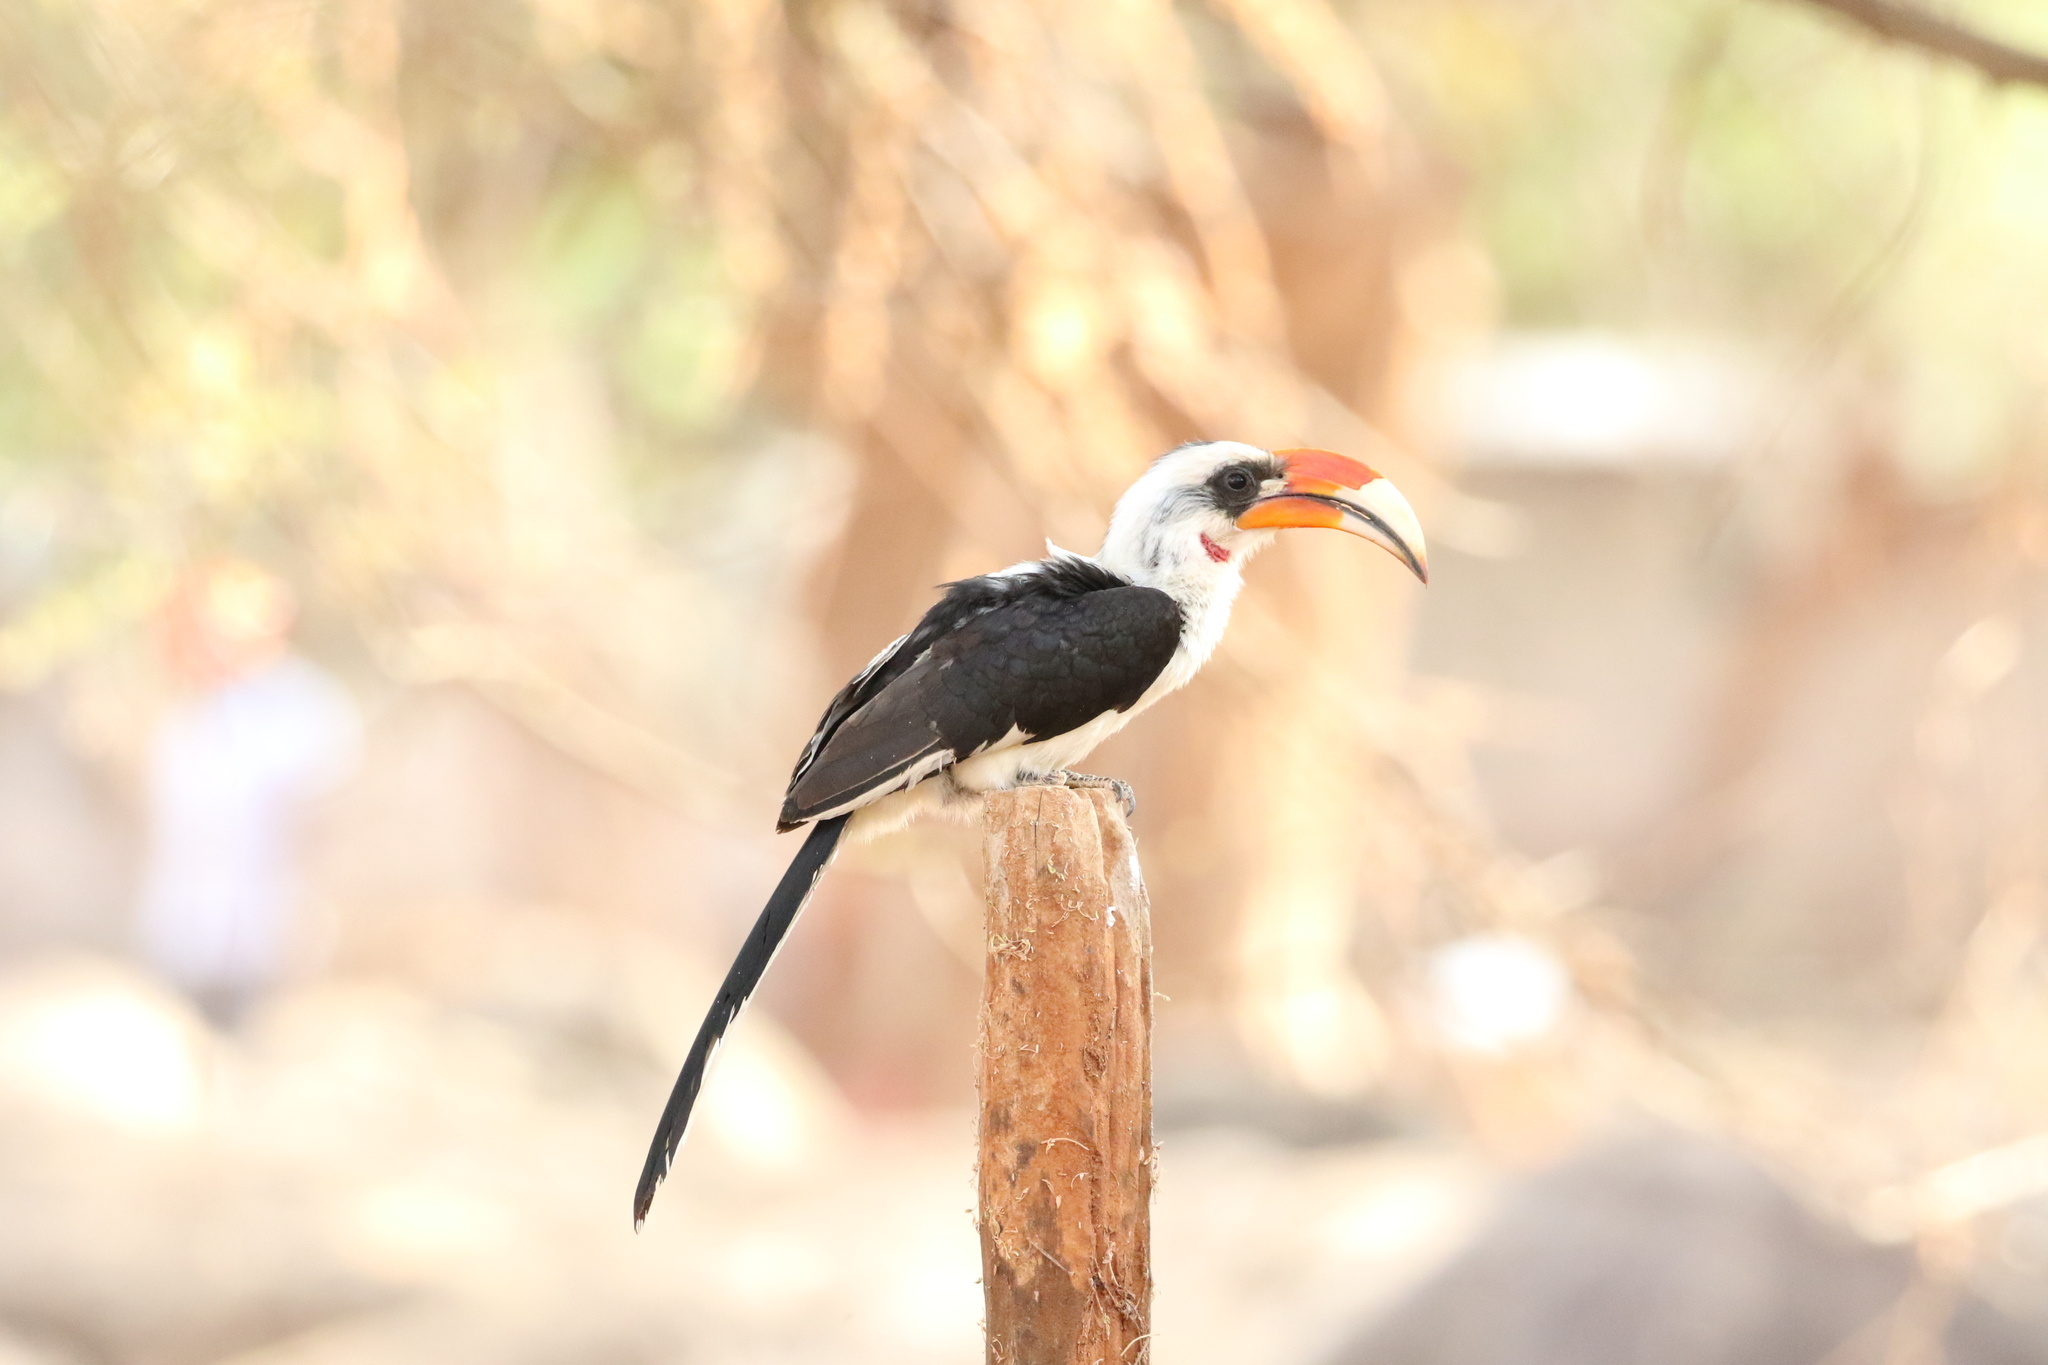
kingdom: Animalia
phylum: Chordata
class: Aves
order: Bucerotiformes
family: Bucerotidae
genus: Tockus
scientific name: Tockus deckeni
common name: Von der decken's hornbill
